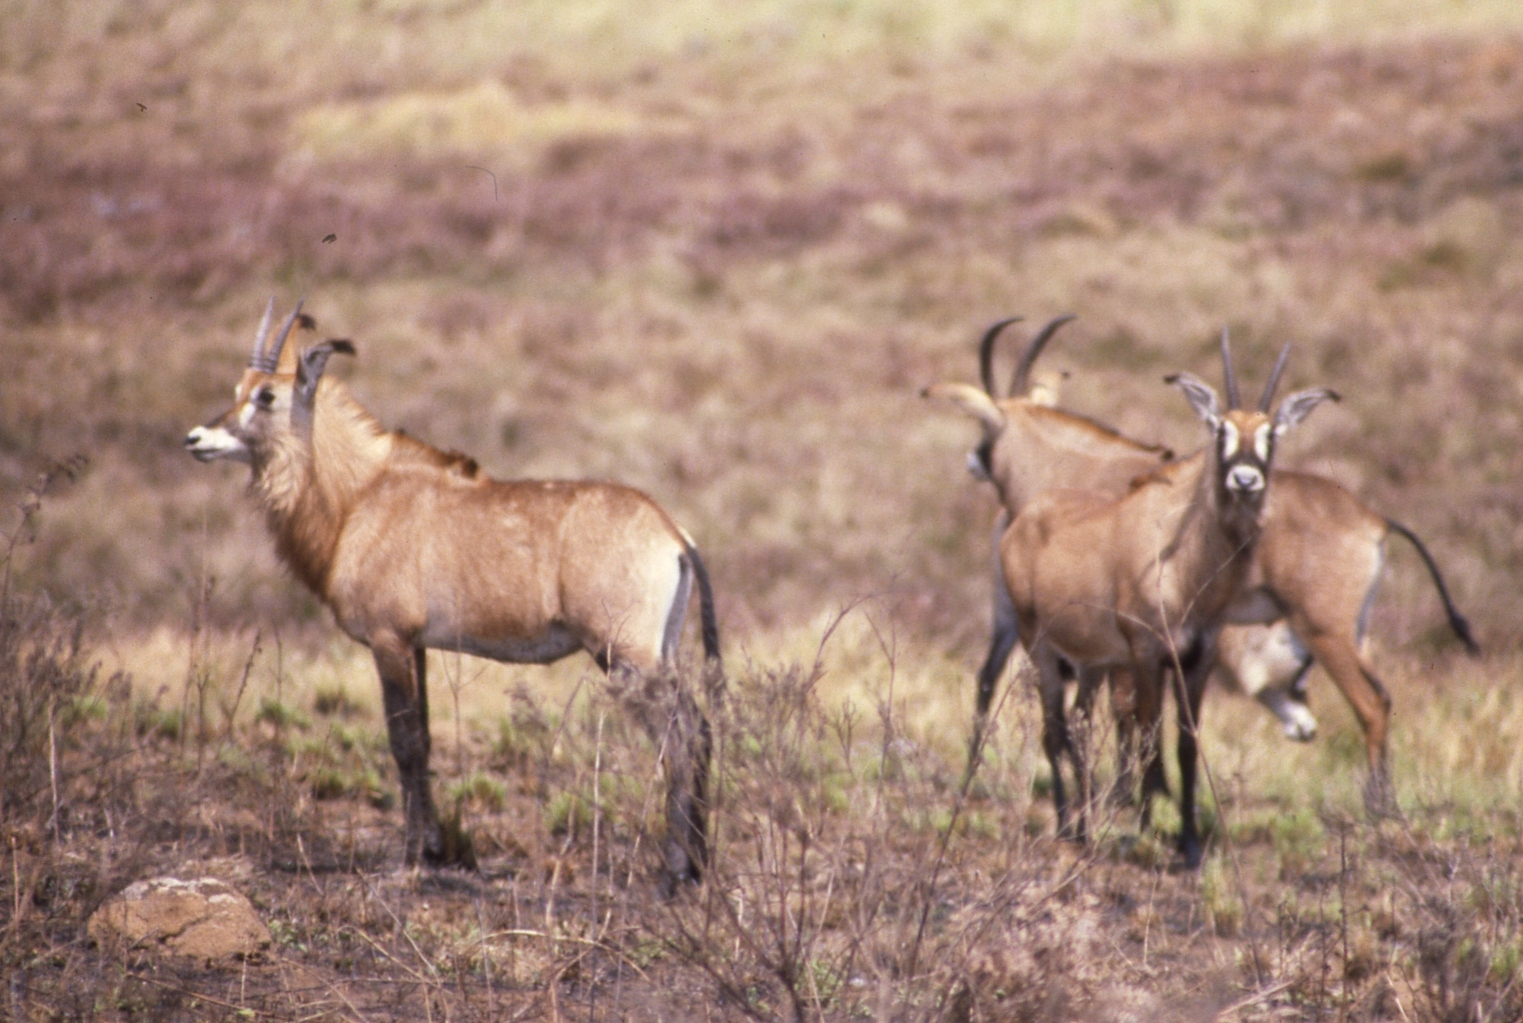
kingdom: Animalia
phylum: Chordata
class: Mammalia
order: Artiodactyla
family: Bovidae
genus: Hippotragus
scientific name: Hippotragus equinus
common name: Roan antelope
